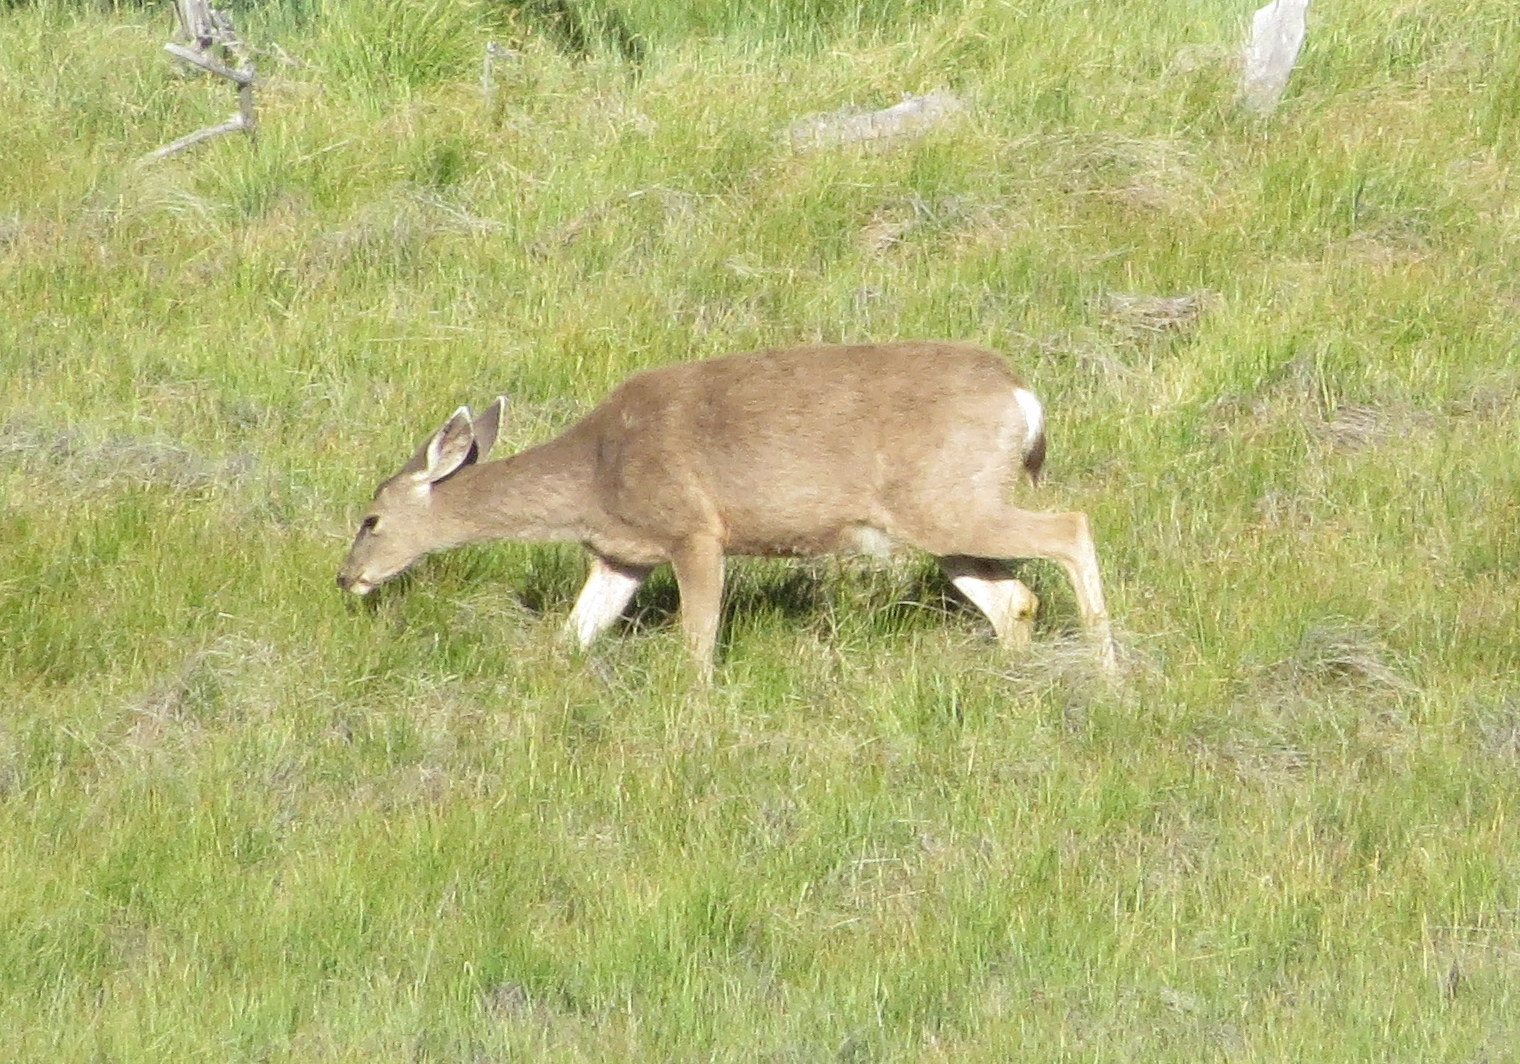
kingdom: Animalia
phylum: Chordata
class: Mammalia
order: Artiodactyla
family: Cervidae
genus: Odocoileus
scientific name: Odocoileus hemionus
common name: Mule deer
